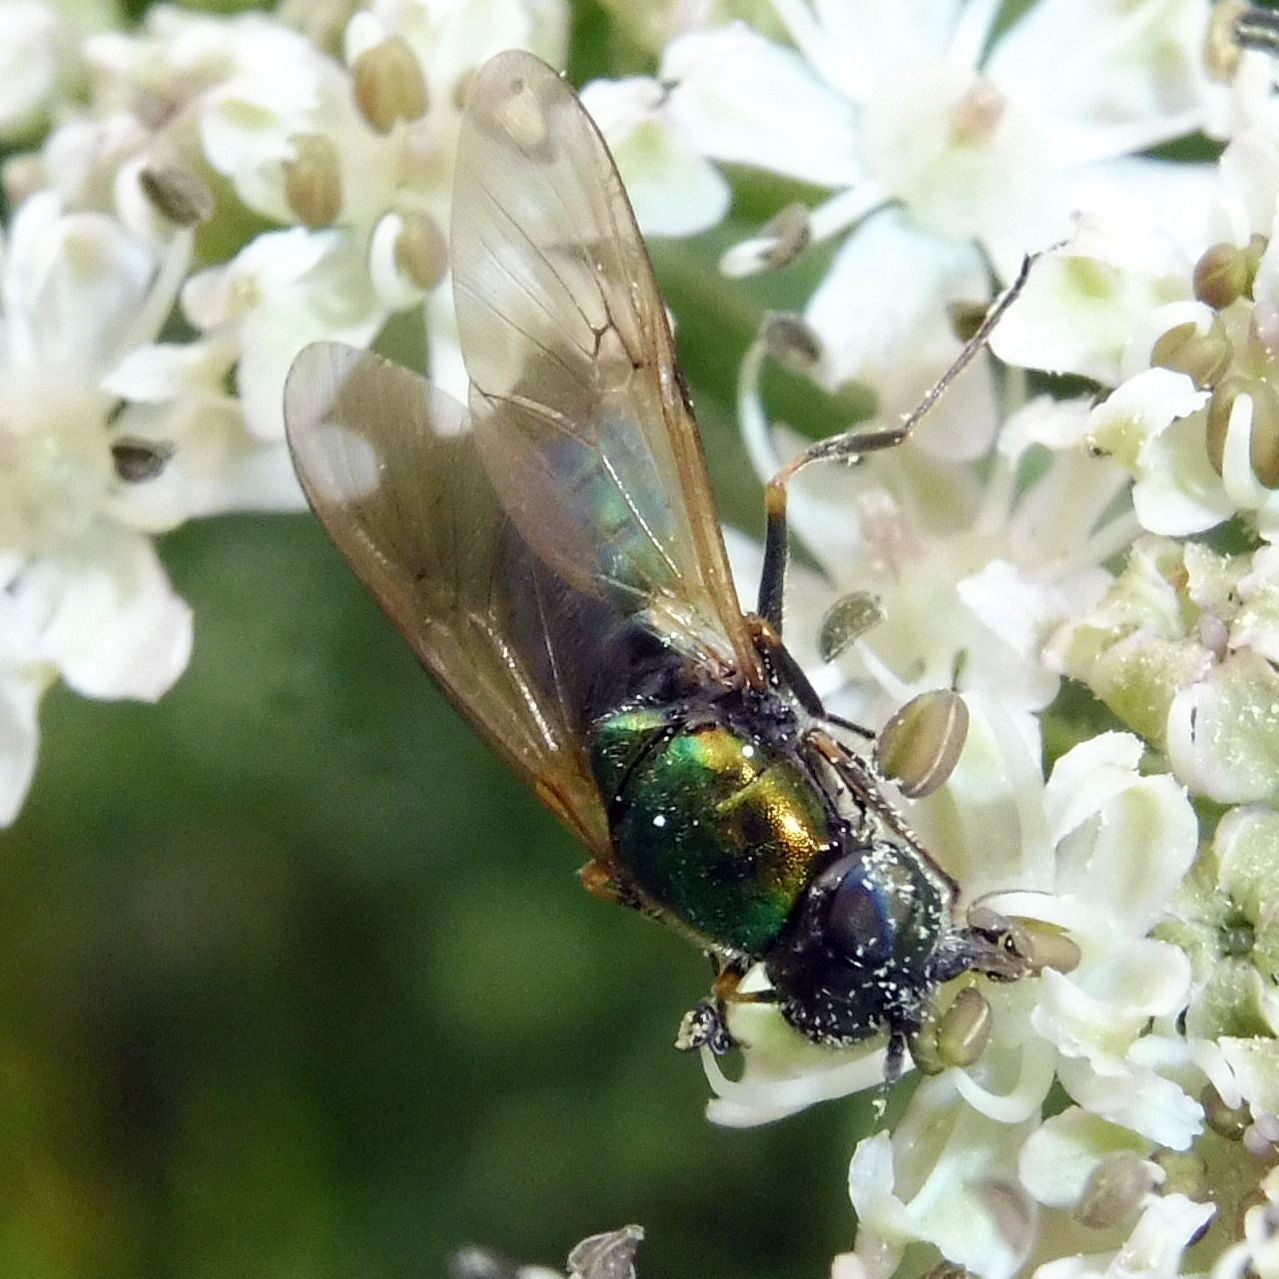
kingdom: Animalia
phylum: Arthropoda
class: Insecta
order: Diptera
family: Stratiomyidae
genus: Chloromyia
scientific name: Chloromyia formosa
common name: Soldier fly
